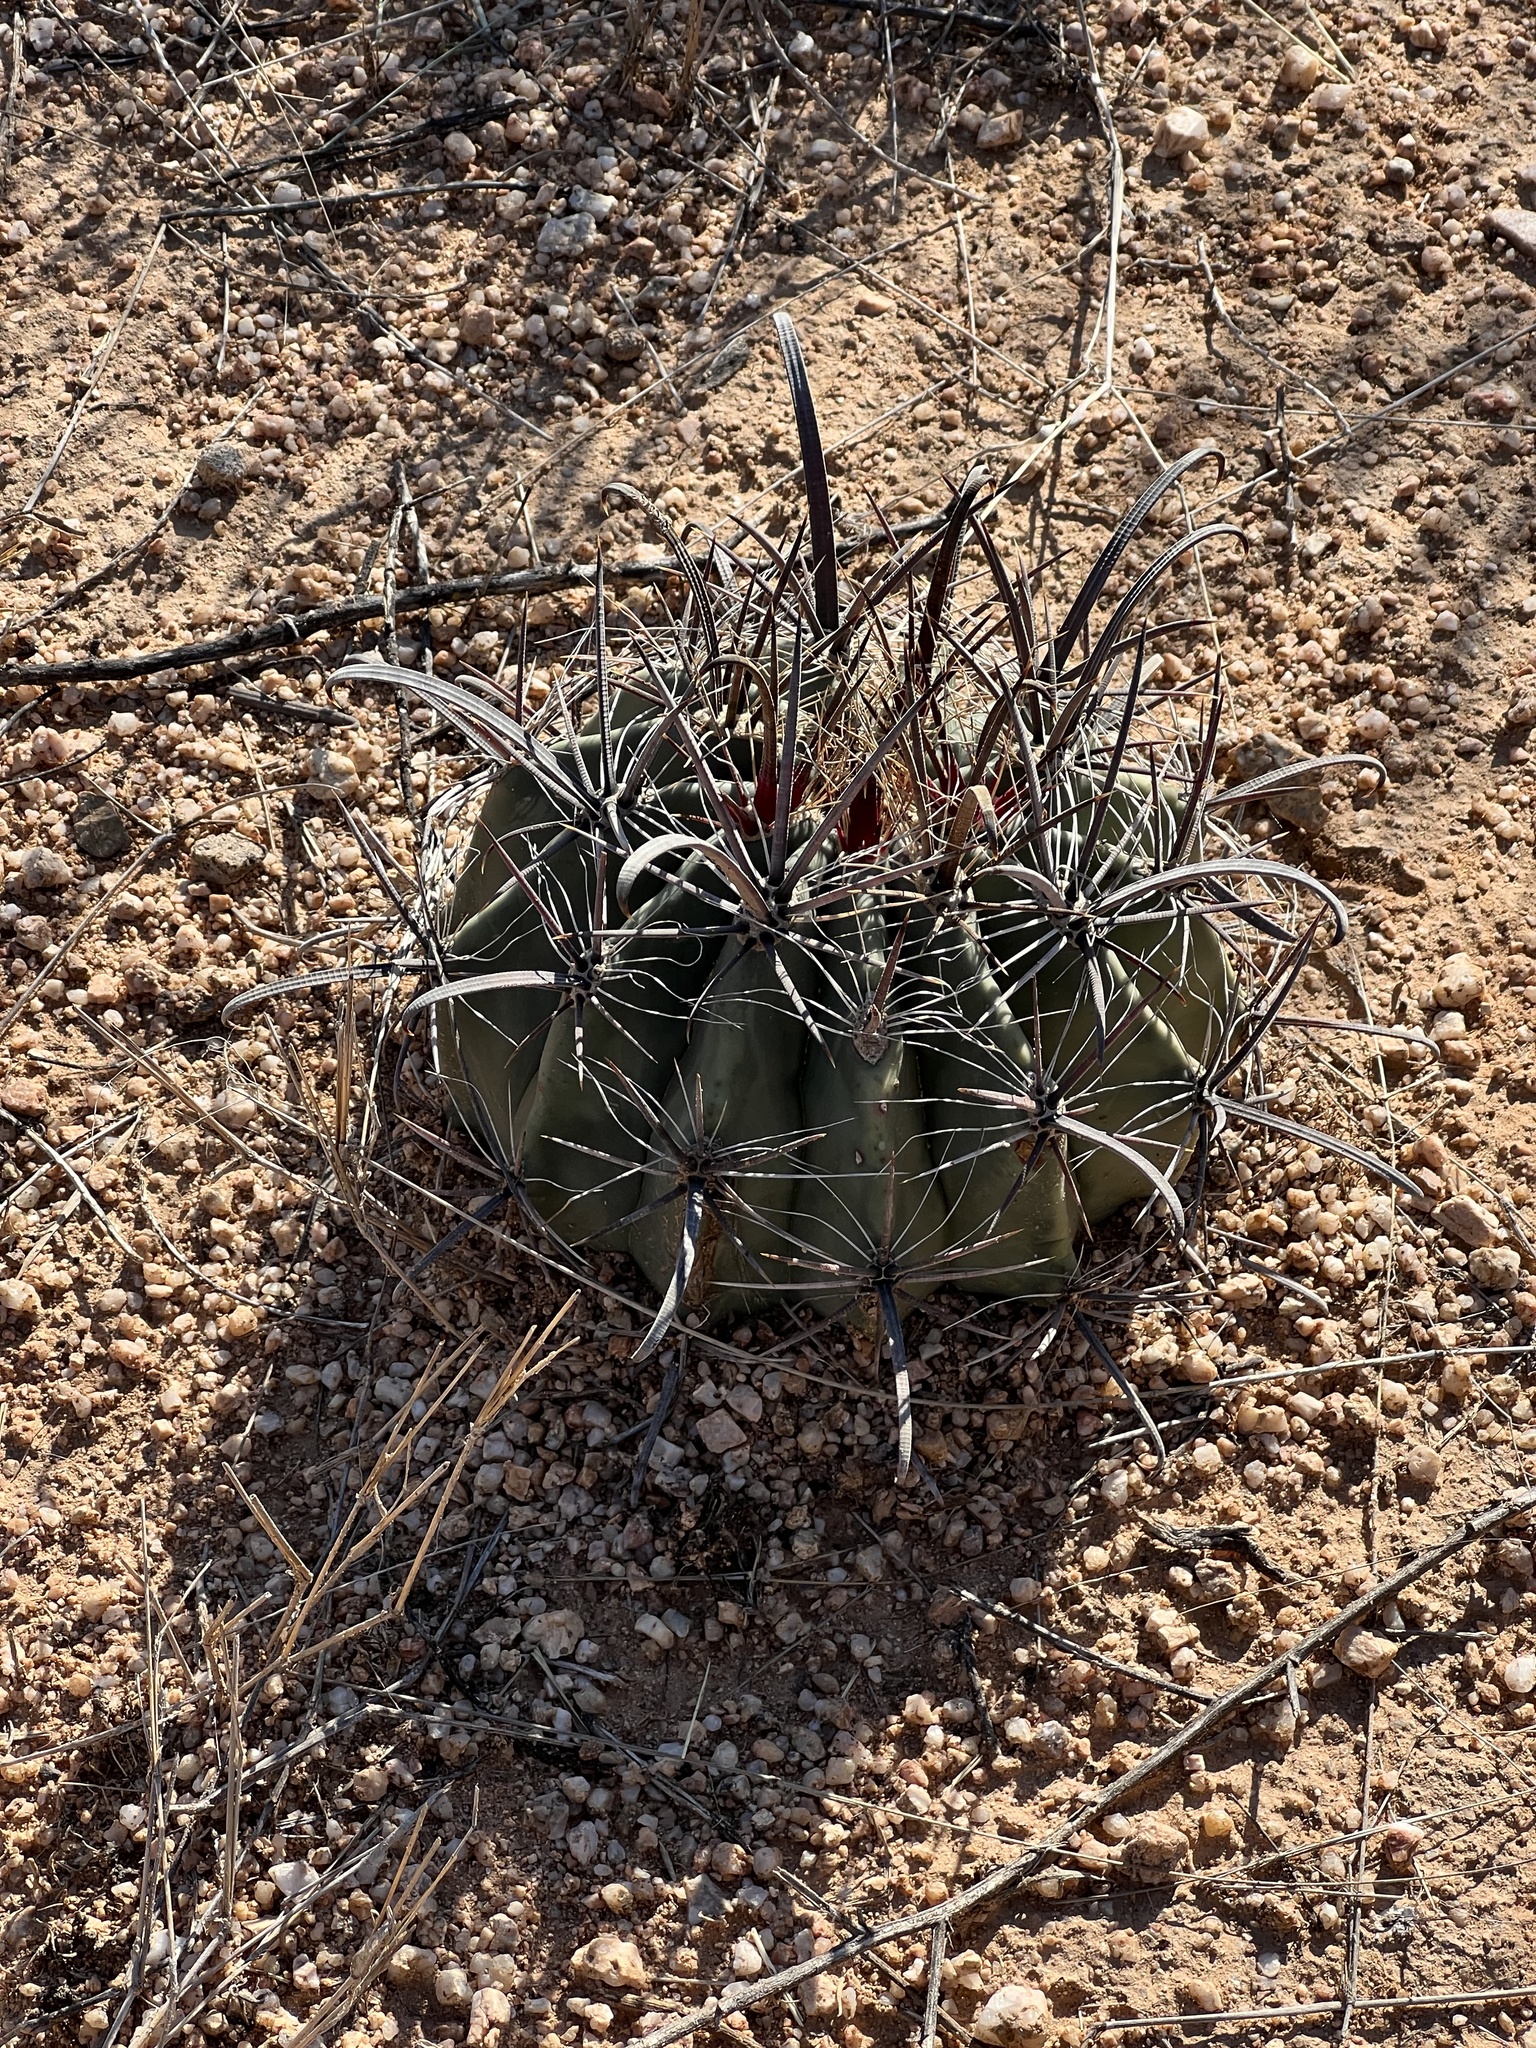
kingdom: Plantae
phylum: Tracheophyta
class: Magnoliopsida
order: Caryophyllales
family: Cactaceae
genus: Ferocactus
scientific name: Ferocactus wislizeni
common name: Candy barrel cactus
